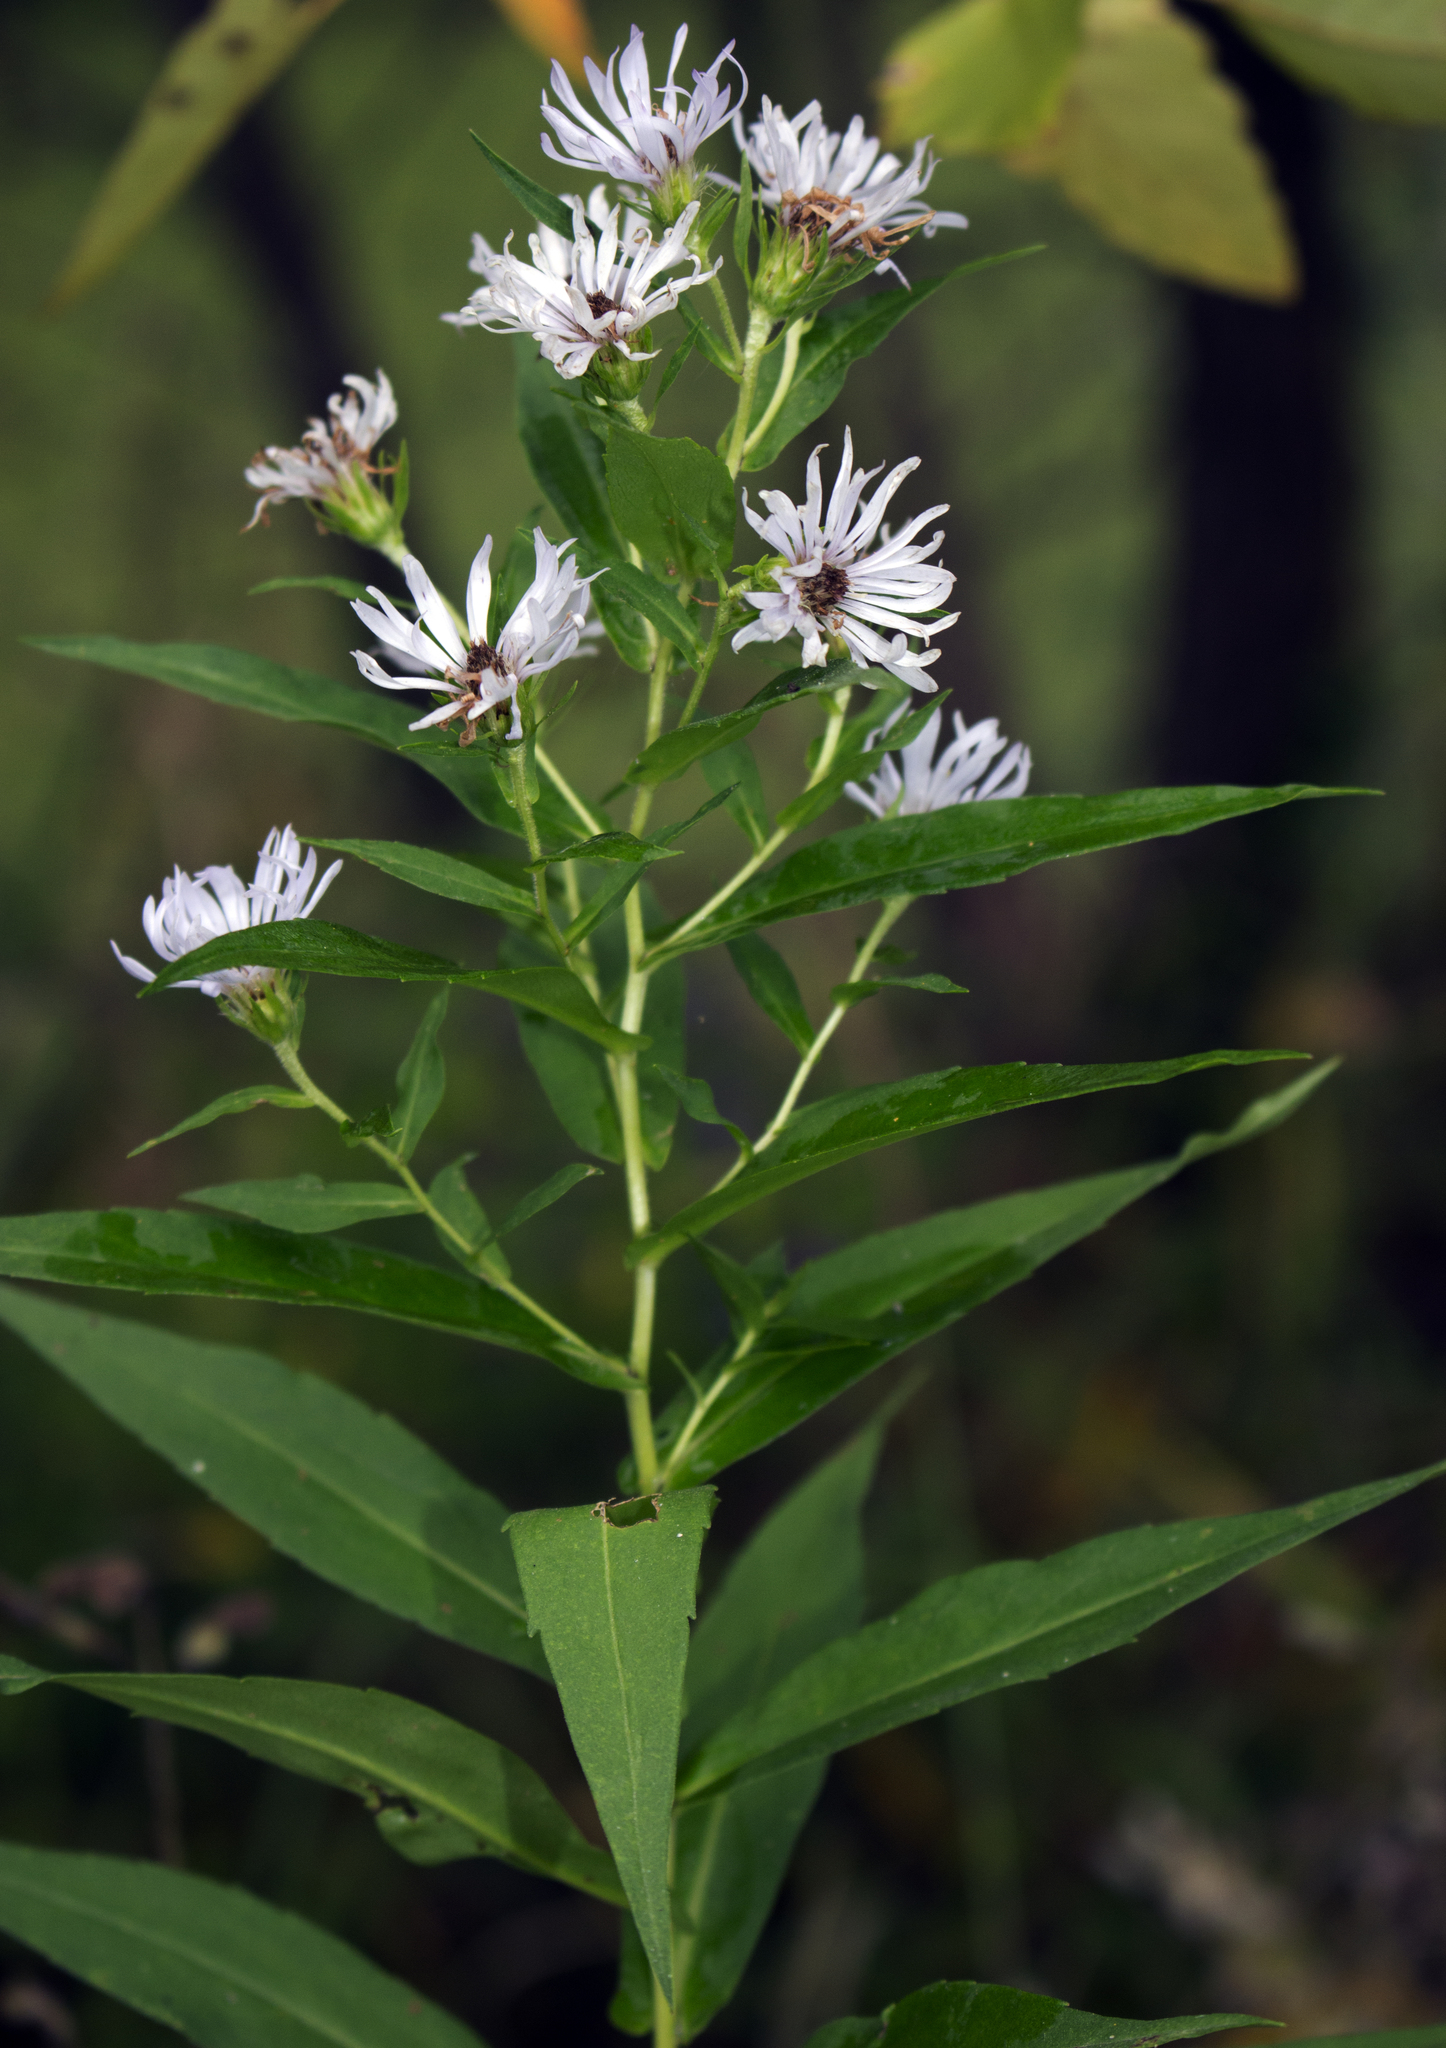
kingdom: Plantae
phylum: Tracheophyta
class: Magnoliopsida
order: Asterales
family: Asteraceae
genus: Symphyotrichum
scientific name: Symphyotrichum firmum
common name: Shining aster
